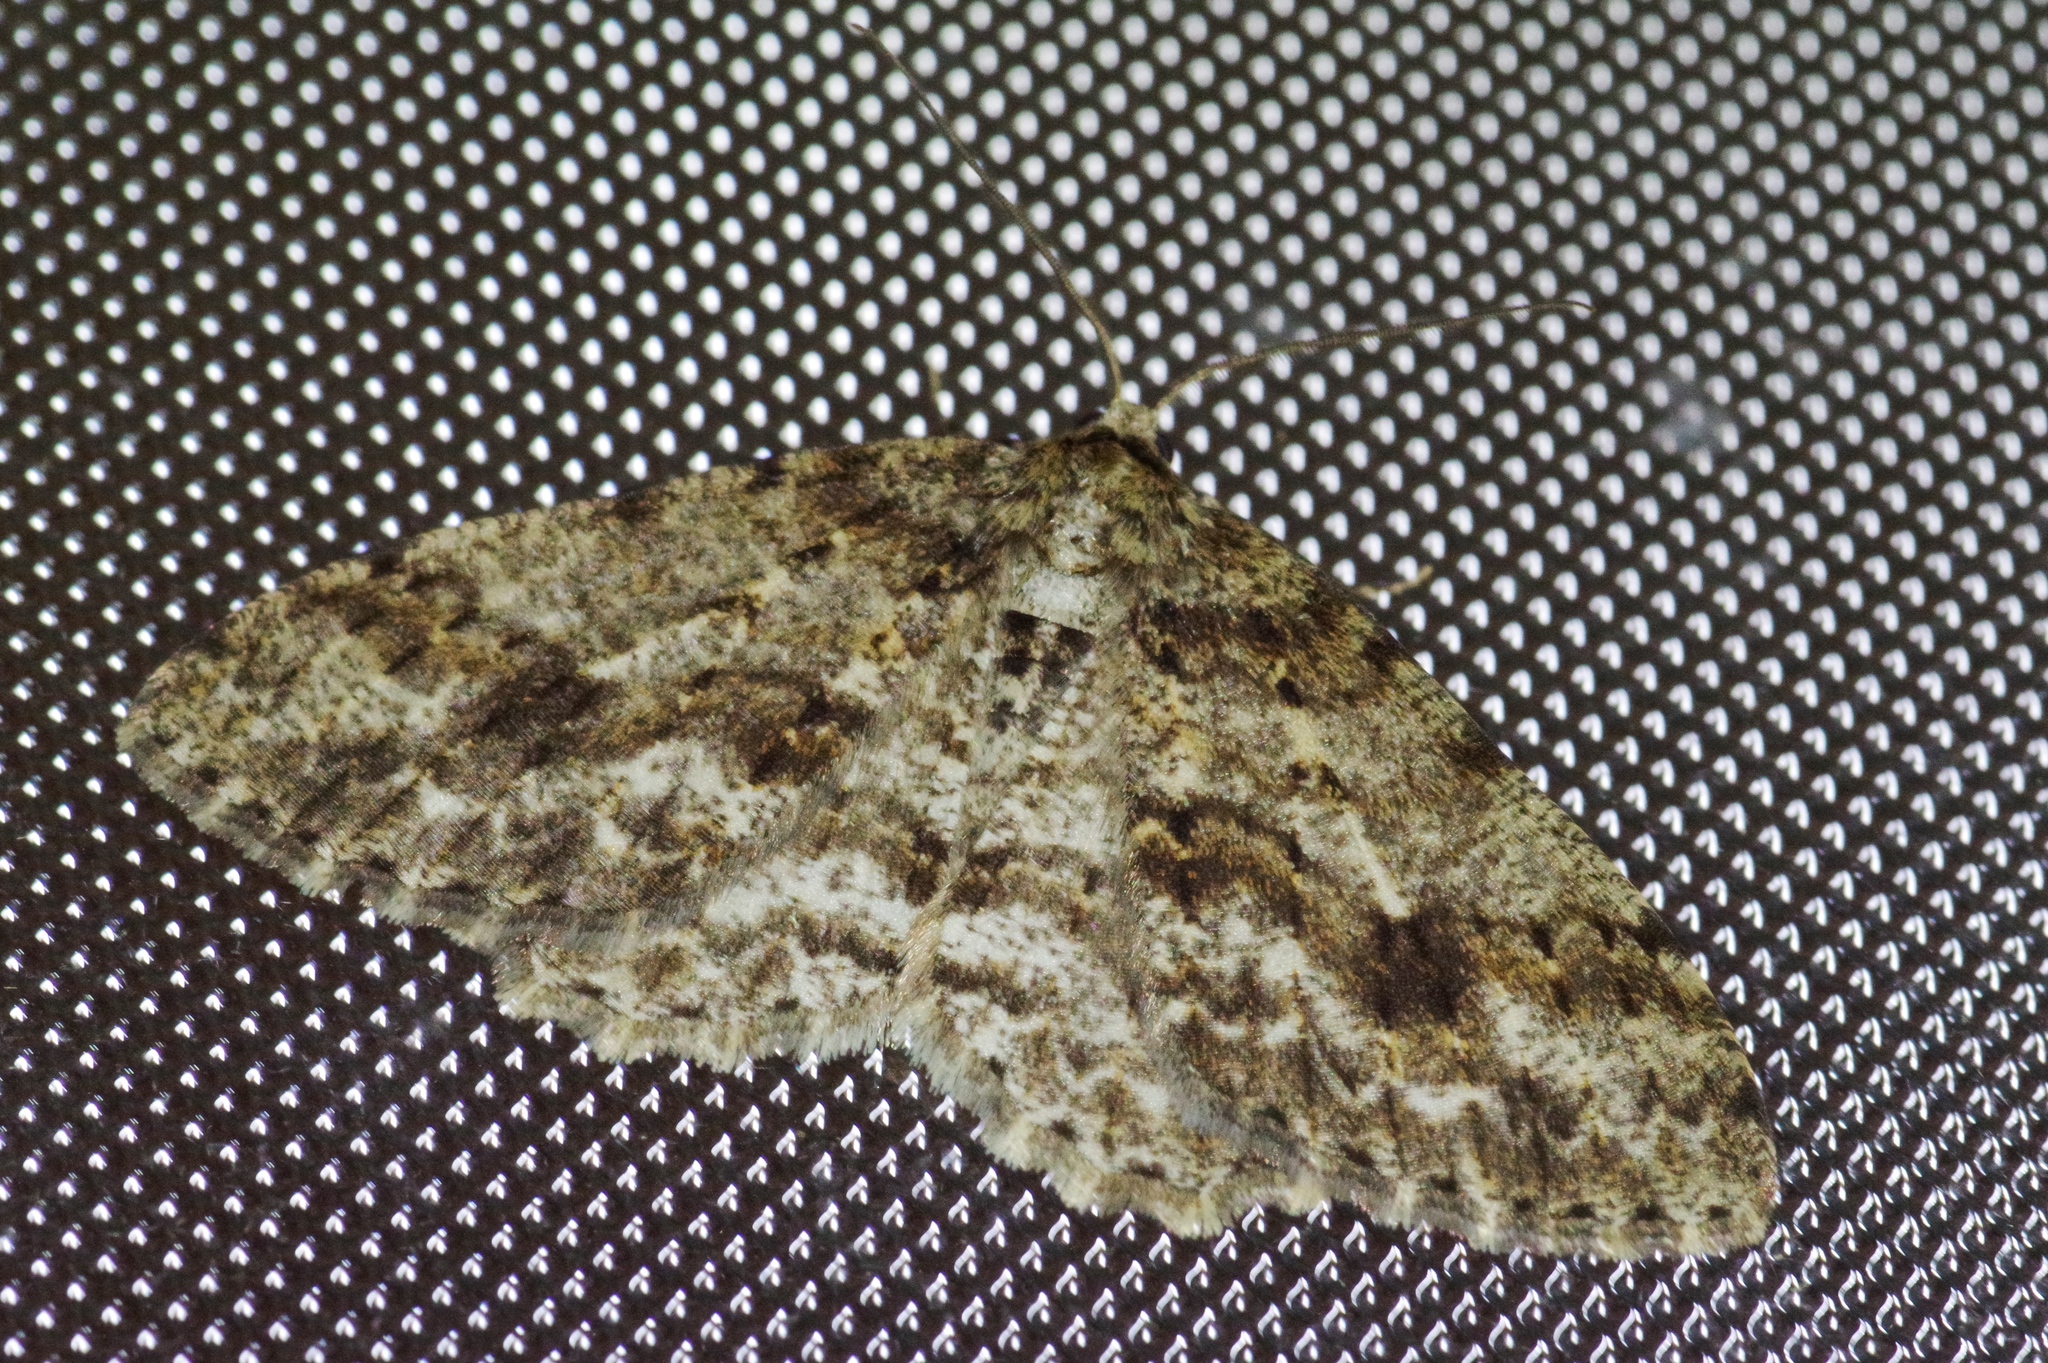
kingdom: Animalia
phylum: Arthropoda
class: Insecta
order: Lepidoptera
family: Geometridae
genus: Ectropis
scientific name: Ectropis crepuscularia
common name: Engrailed
